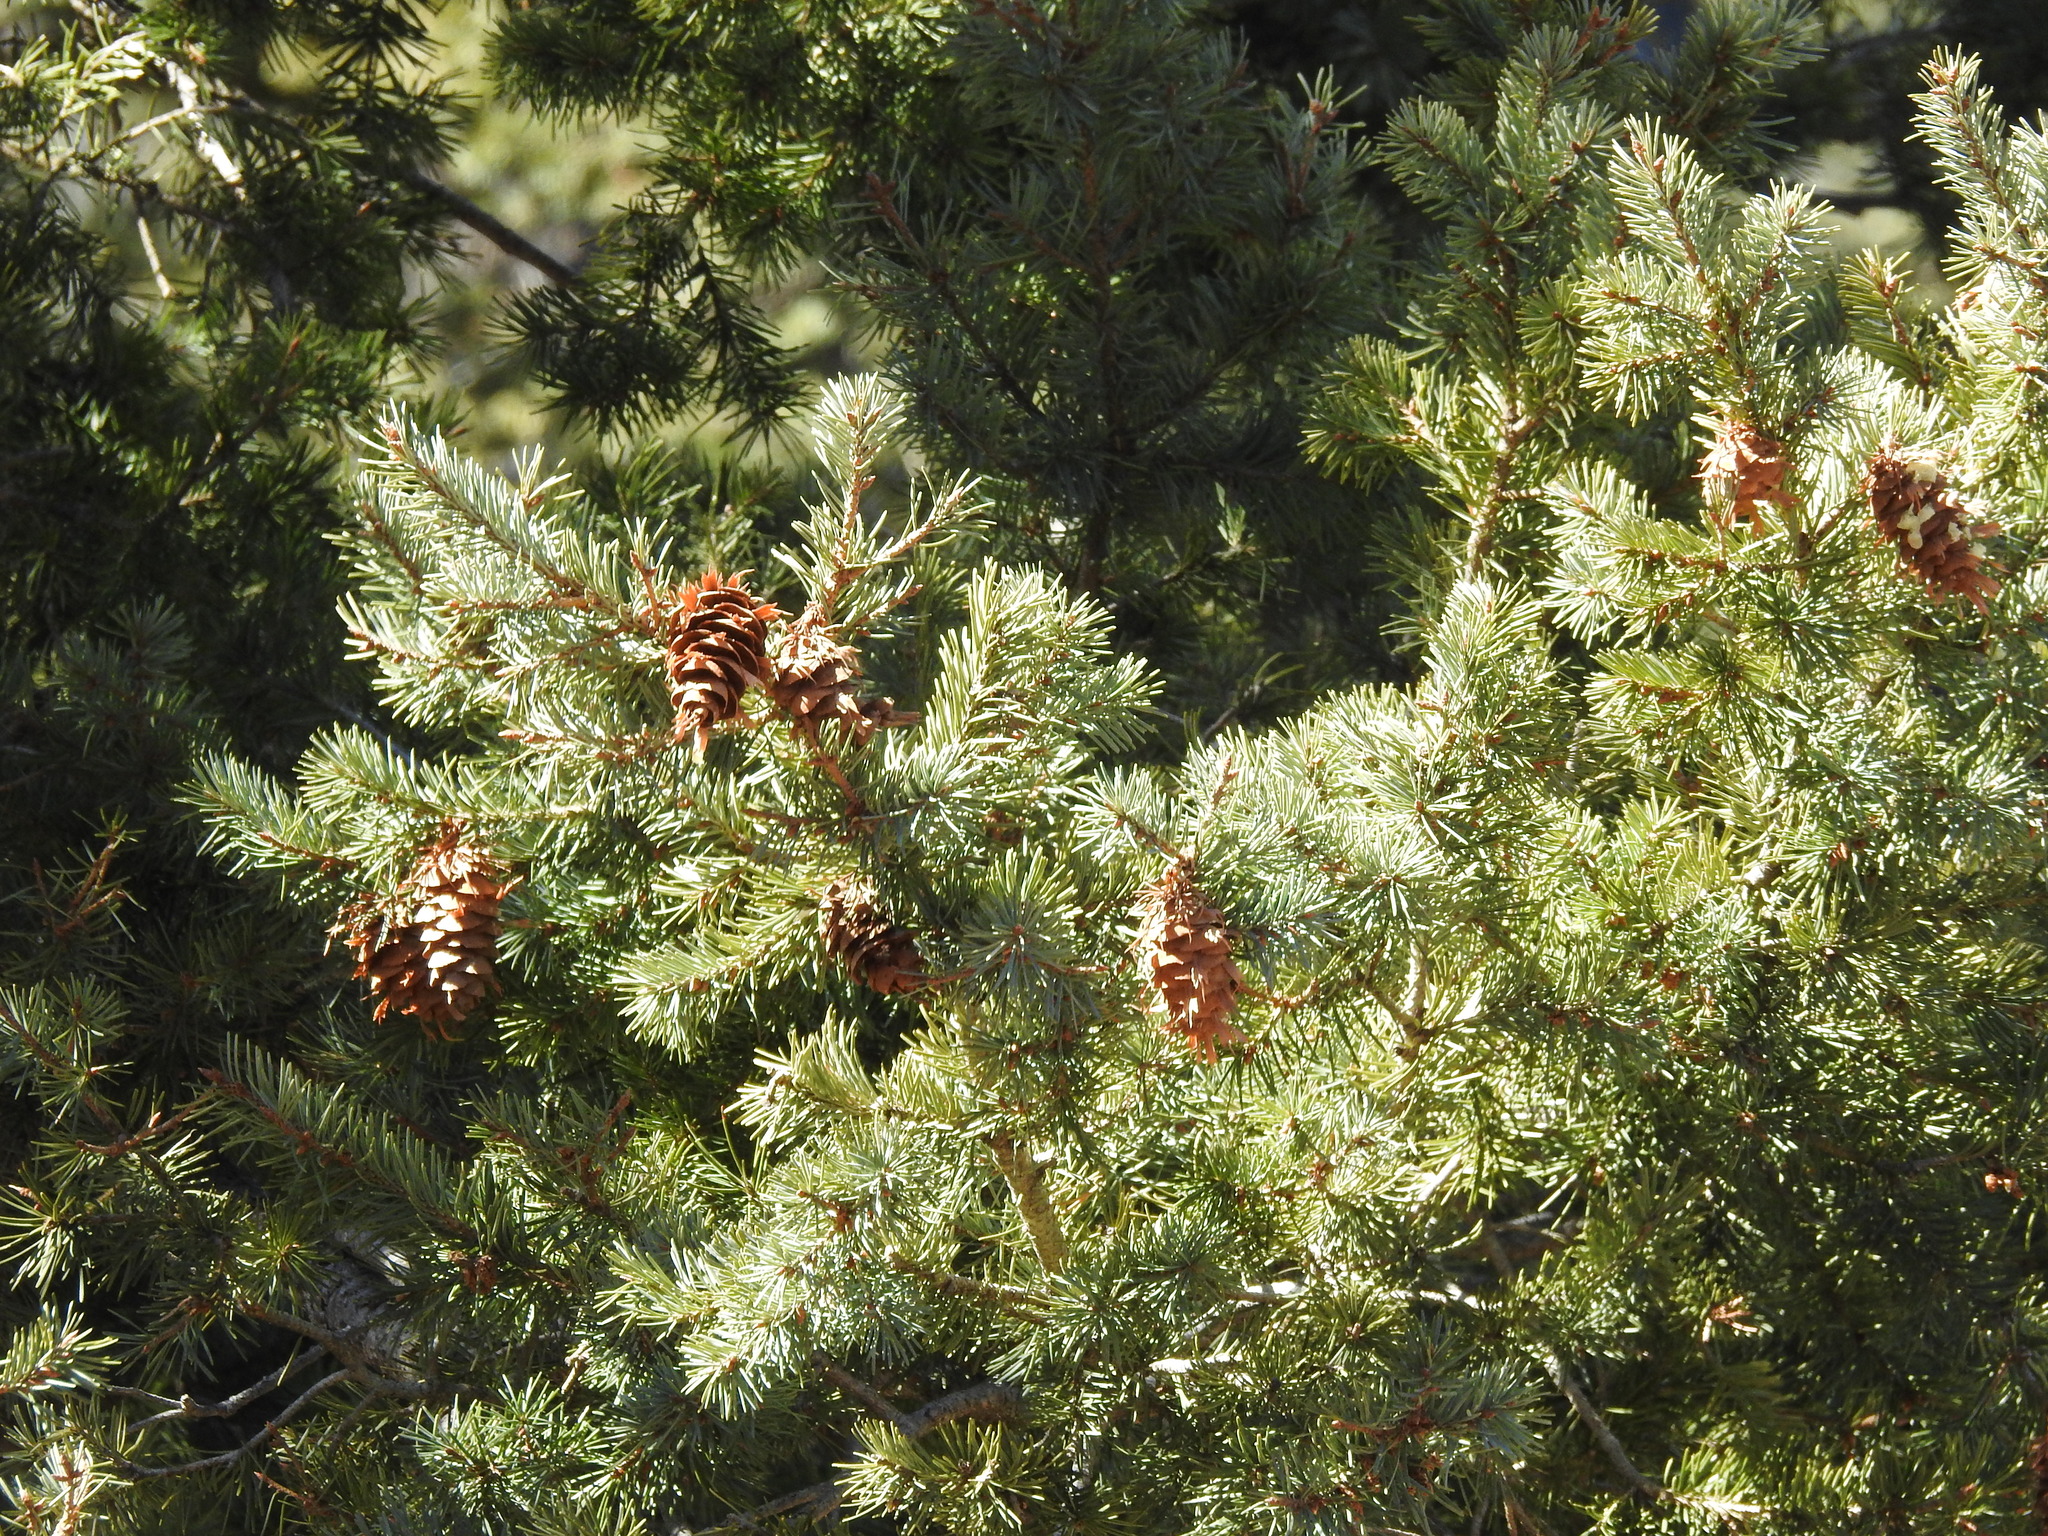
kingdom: Plantae
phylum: Tracheophyta
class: Pinopsida
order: Pinales
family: Pinaceae
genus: Pseudotsuga
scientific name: Pseudotsuga menziesii
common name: Douglas fir
